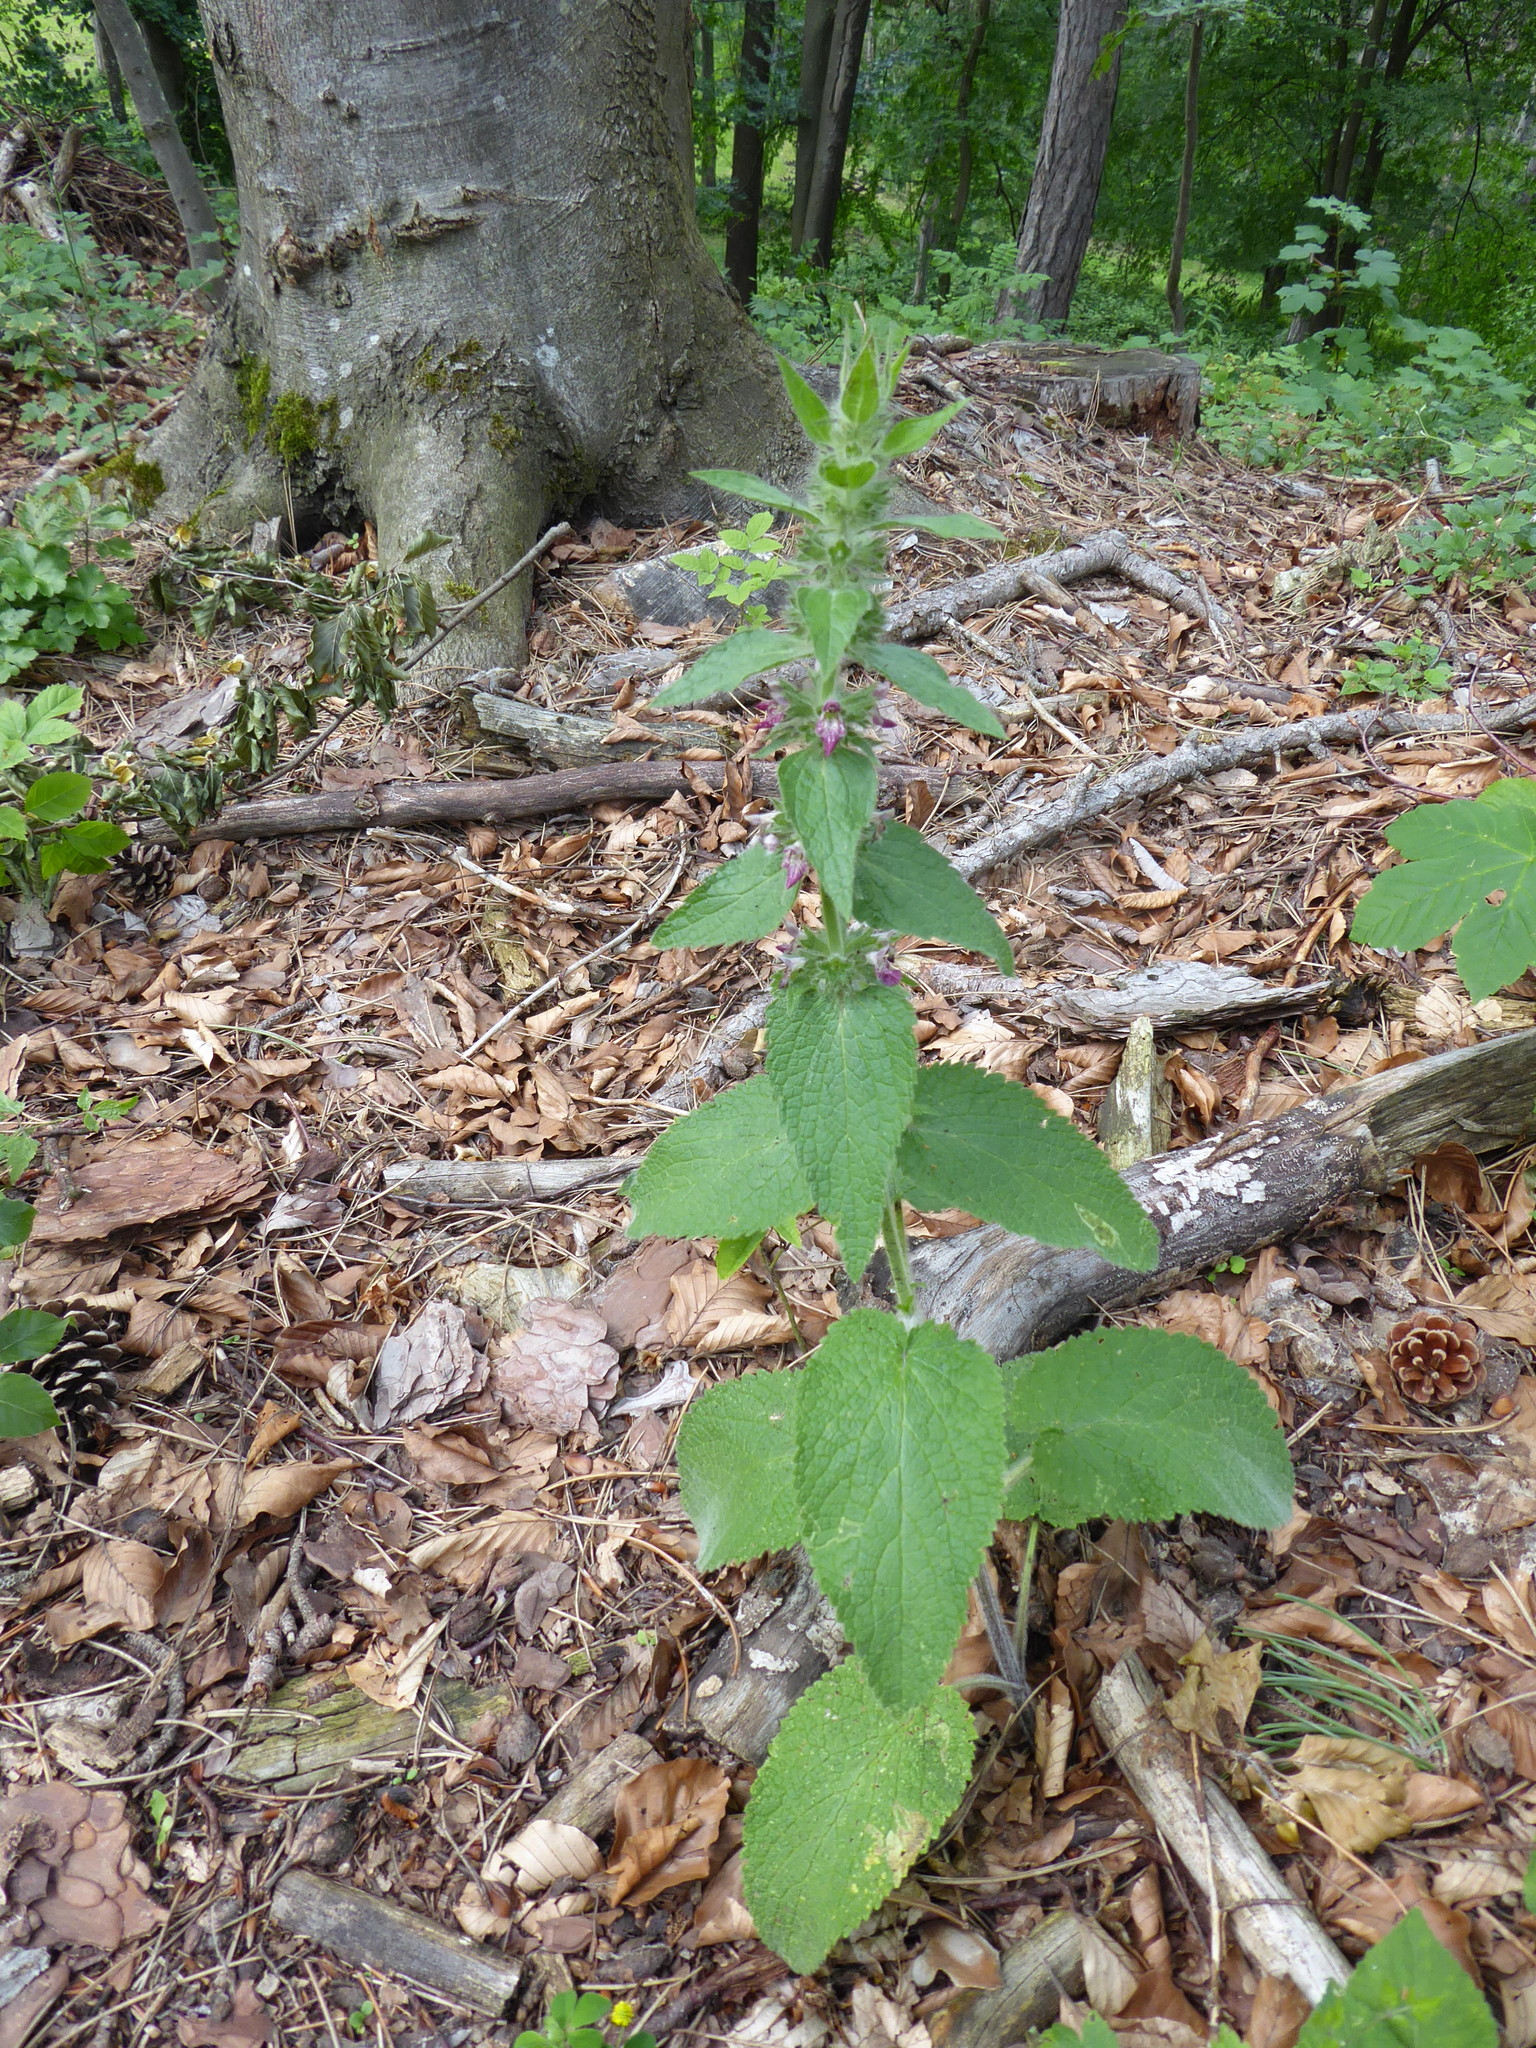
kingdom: Plantae
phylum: Tracheophyta
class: Magnoliopsida
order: Lamiales
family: Lamiaceae
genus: Stachys
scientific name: Stachys alpina
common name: Limestone woundwort
